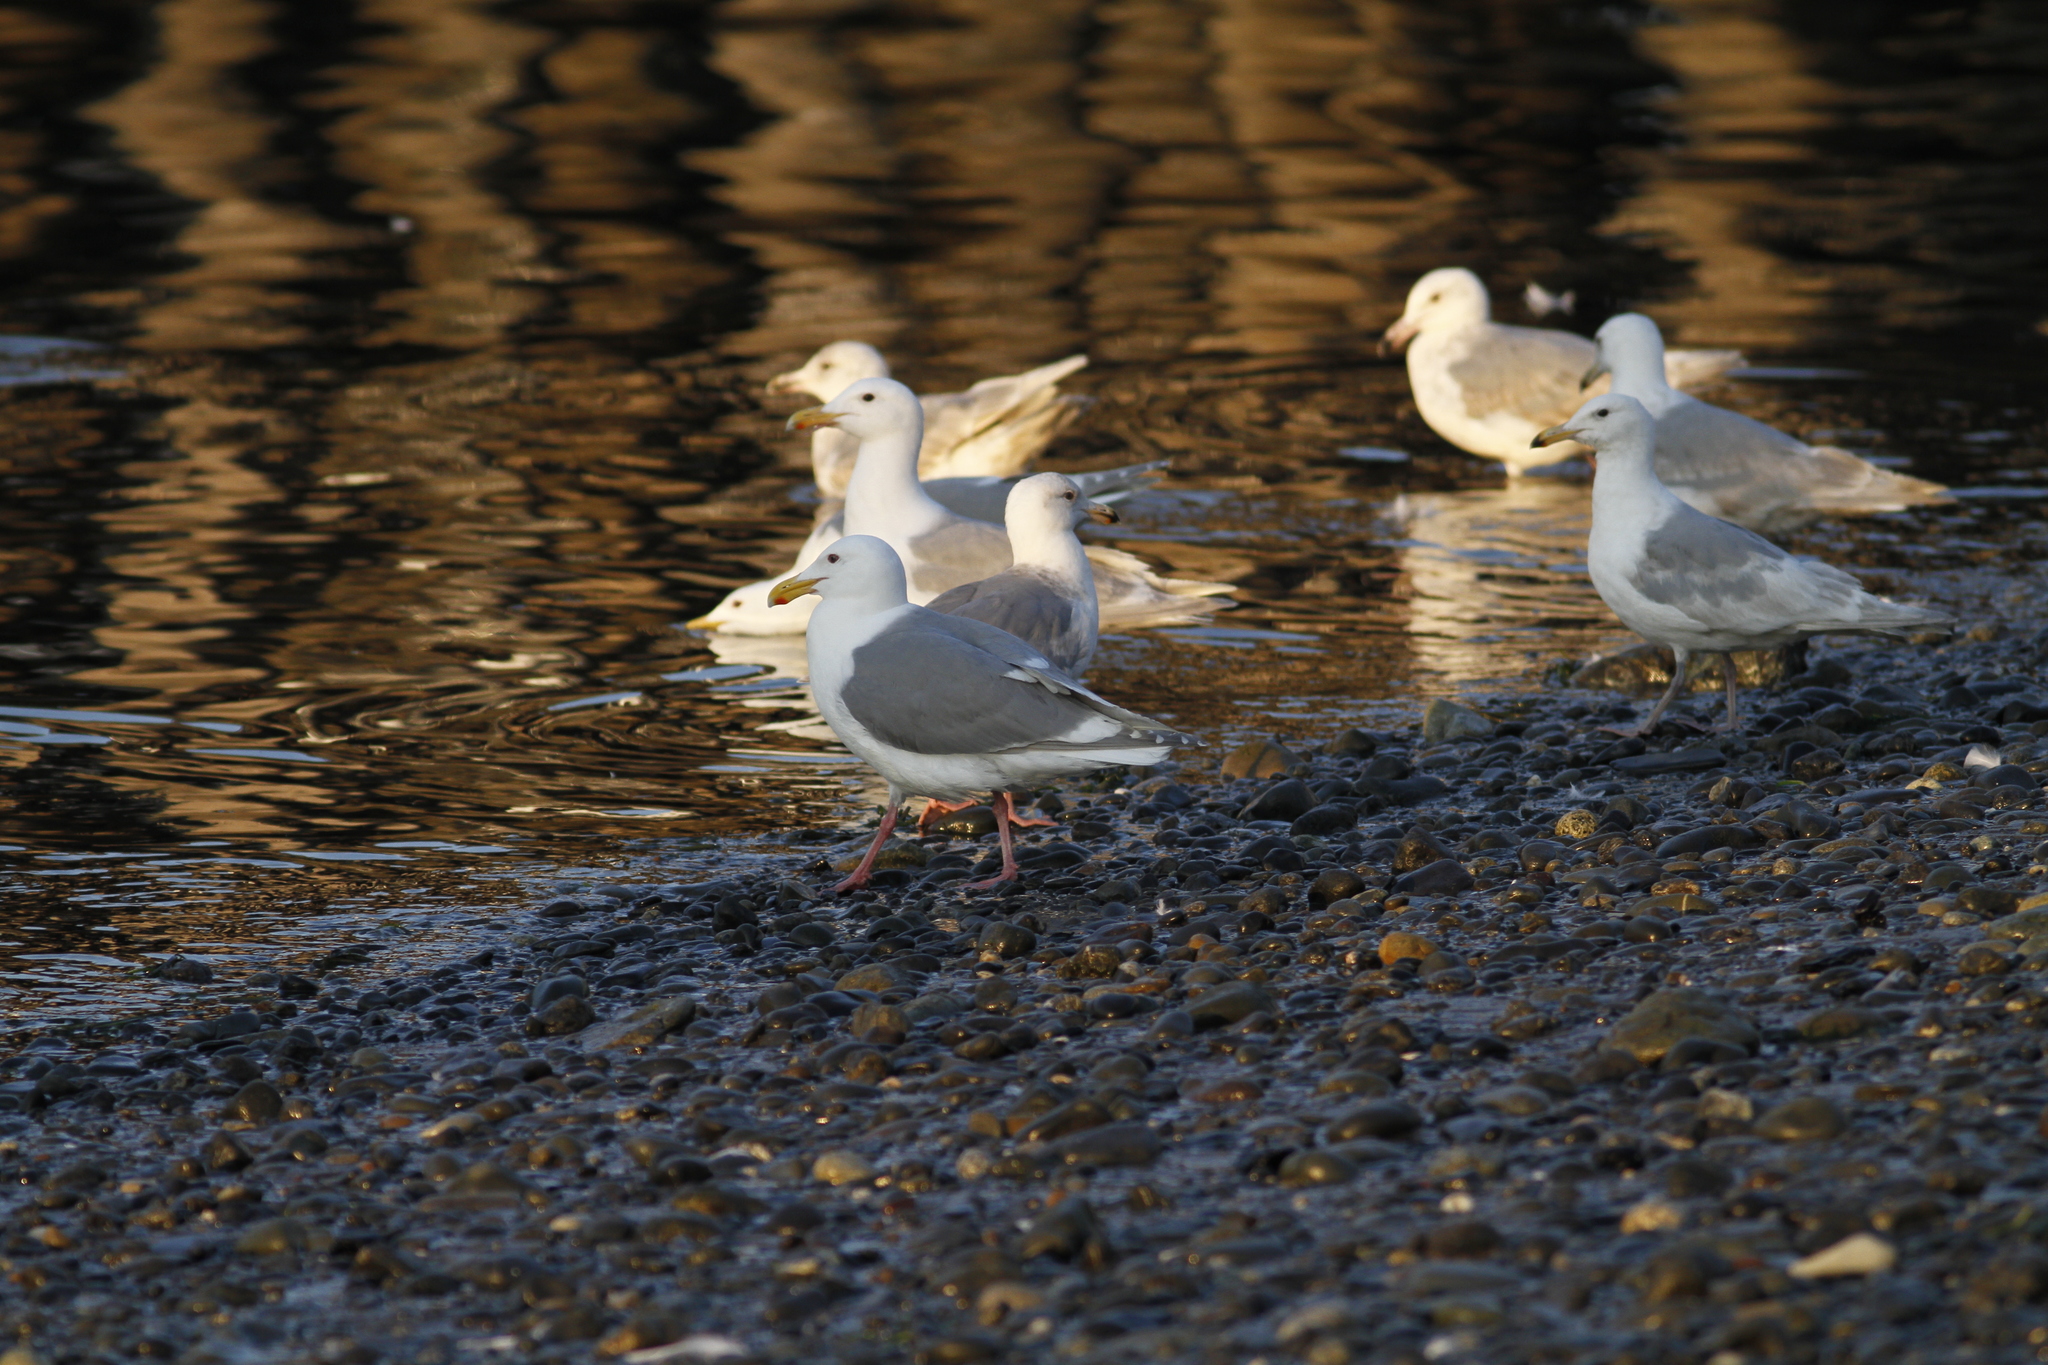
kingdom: Animalia
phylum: Chordata
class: Aves
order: Charadriiformes
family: Laridae
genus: Larus
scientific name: Larus glaucescens
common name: Glaucous-winged gull
